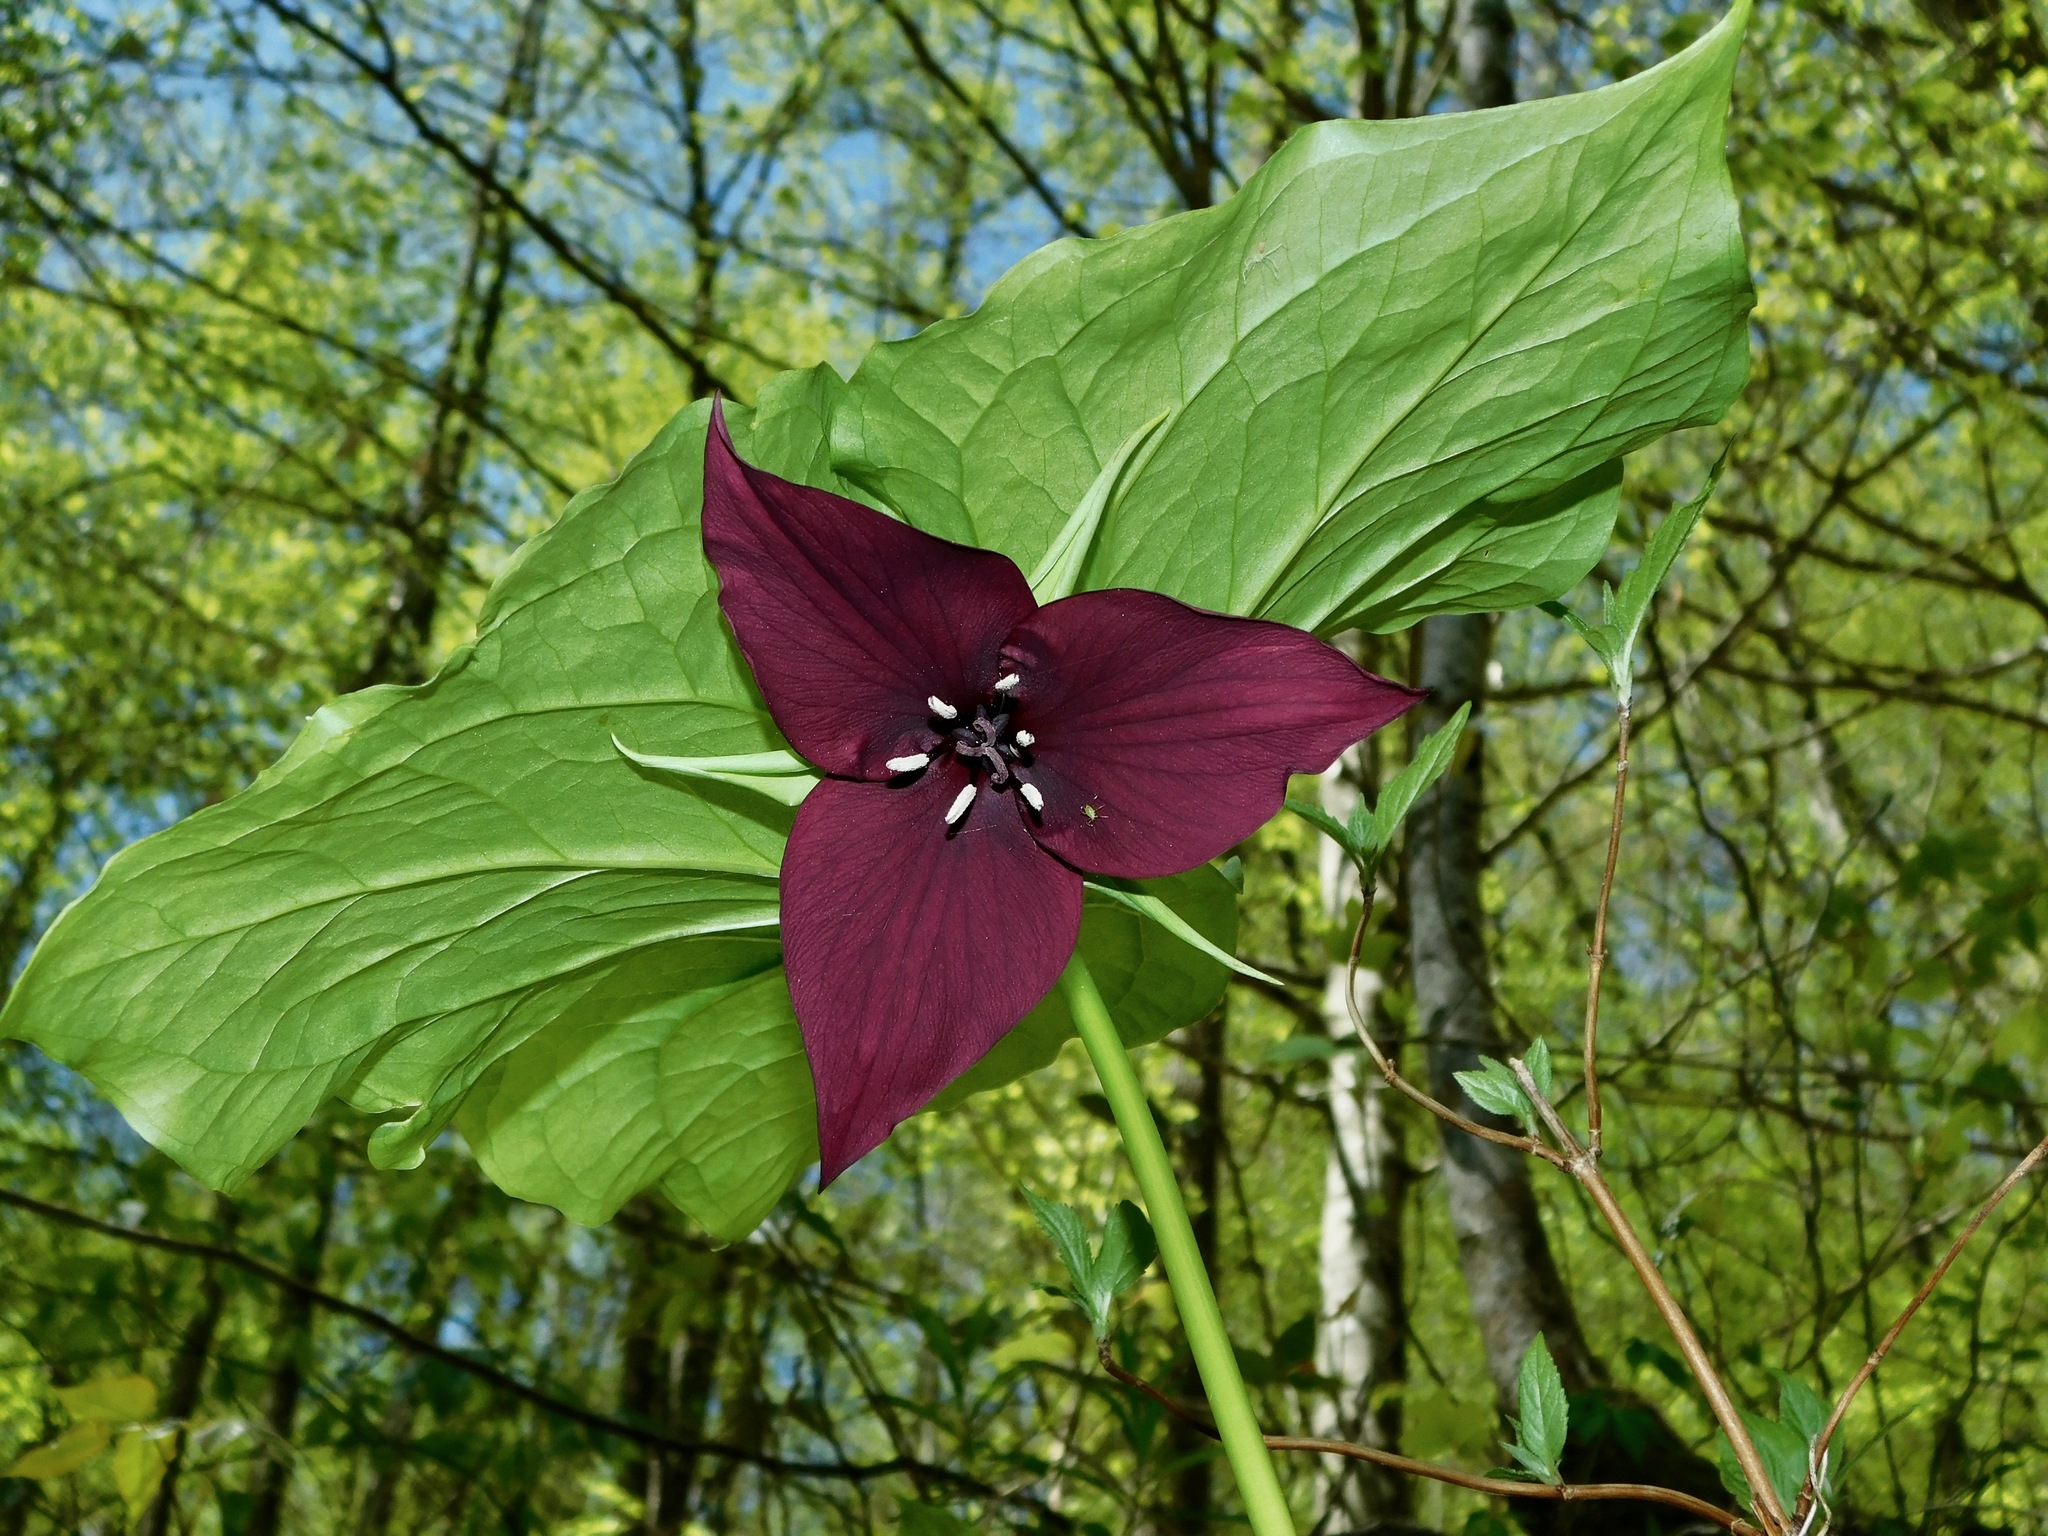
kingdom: Plantae
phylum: Tracheophyta
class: Liliopsida
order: Liliales
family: Melanthiaceae
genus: Trillium
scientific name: Trillium vaseyi
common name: Sweet trillium
